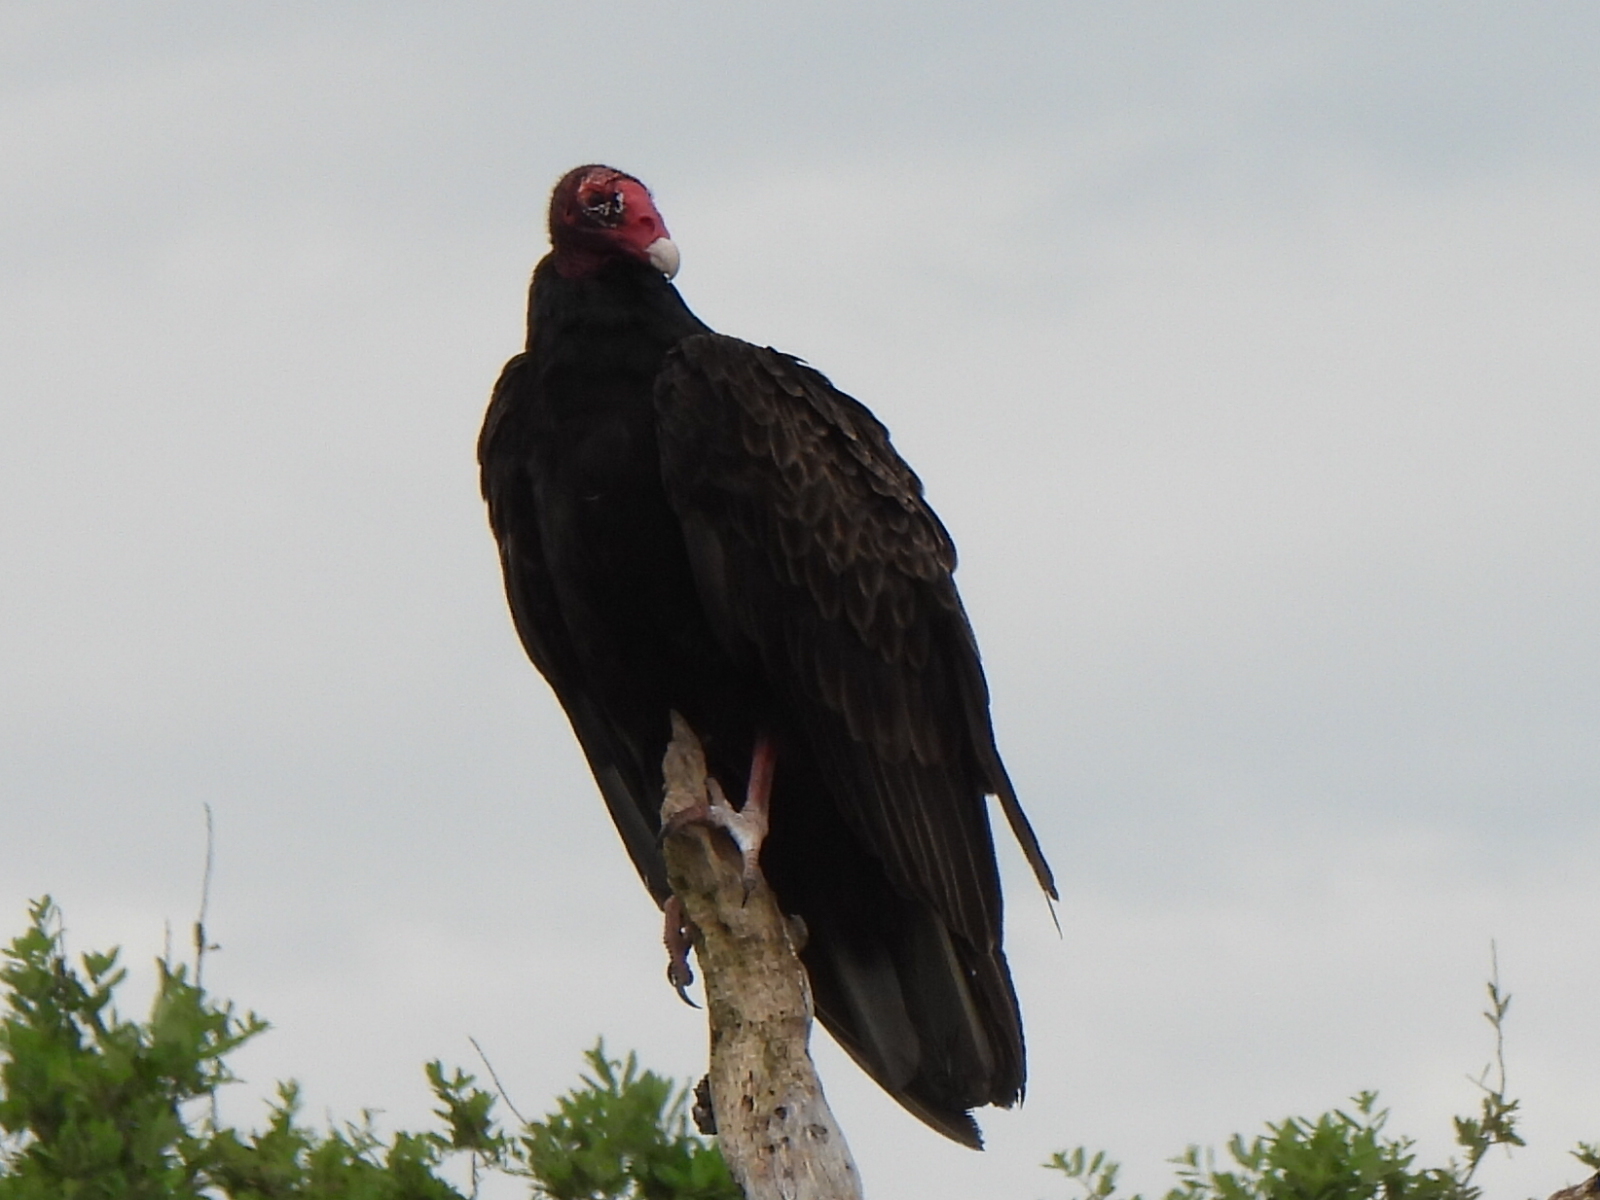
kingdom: Animalia
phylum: Chordata
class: Aves
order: Accipitriformes
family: Cathartidae
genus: Cathartes
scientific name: Cathartes aura
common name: Turkey vulture
